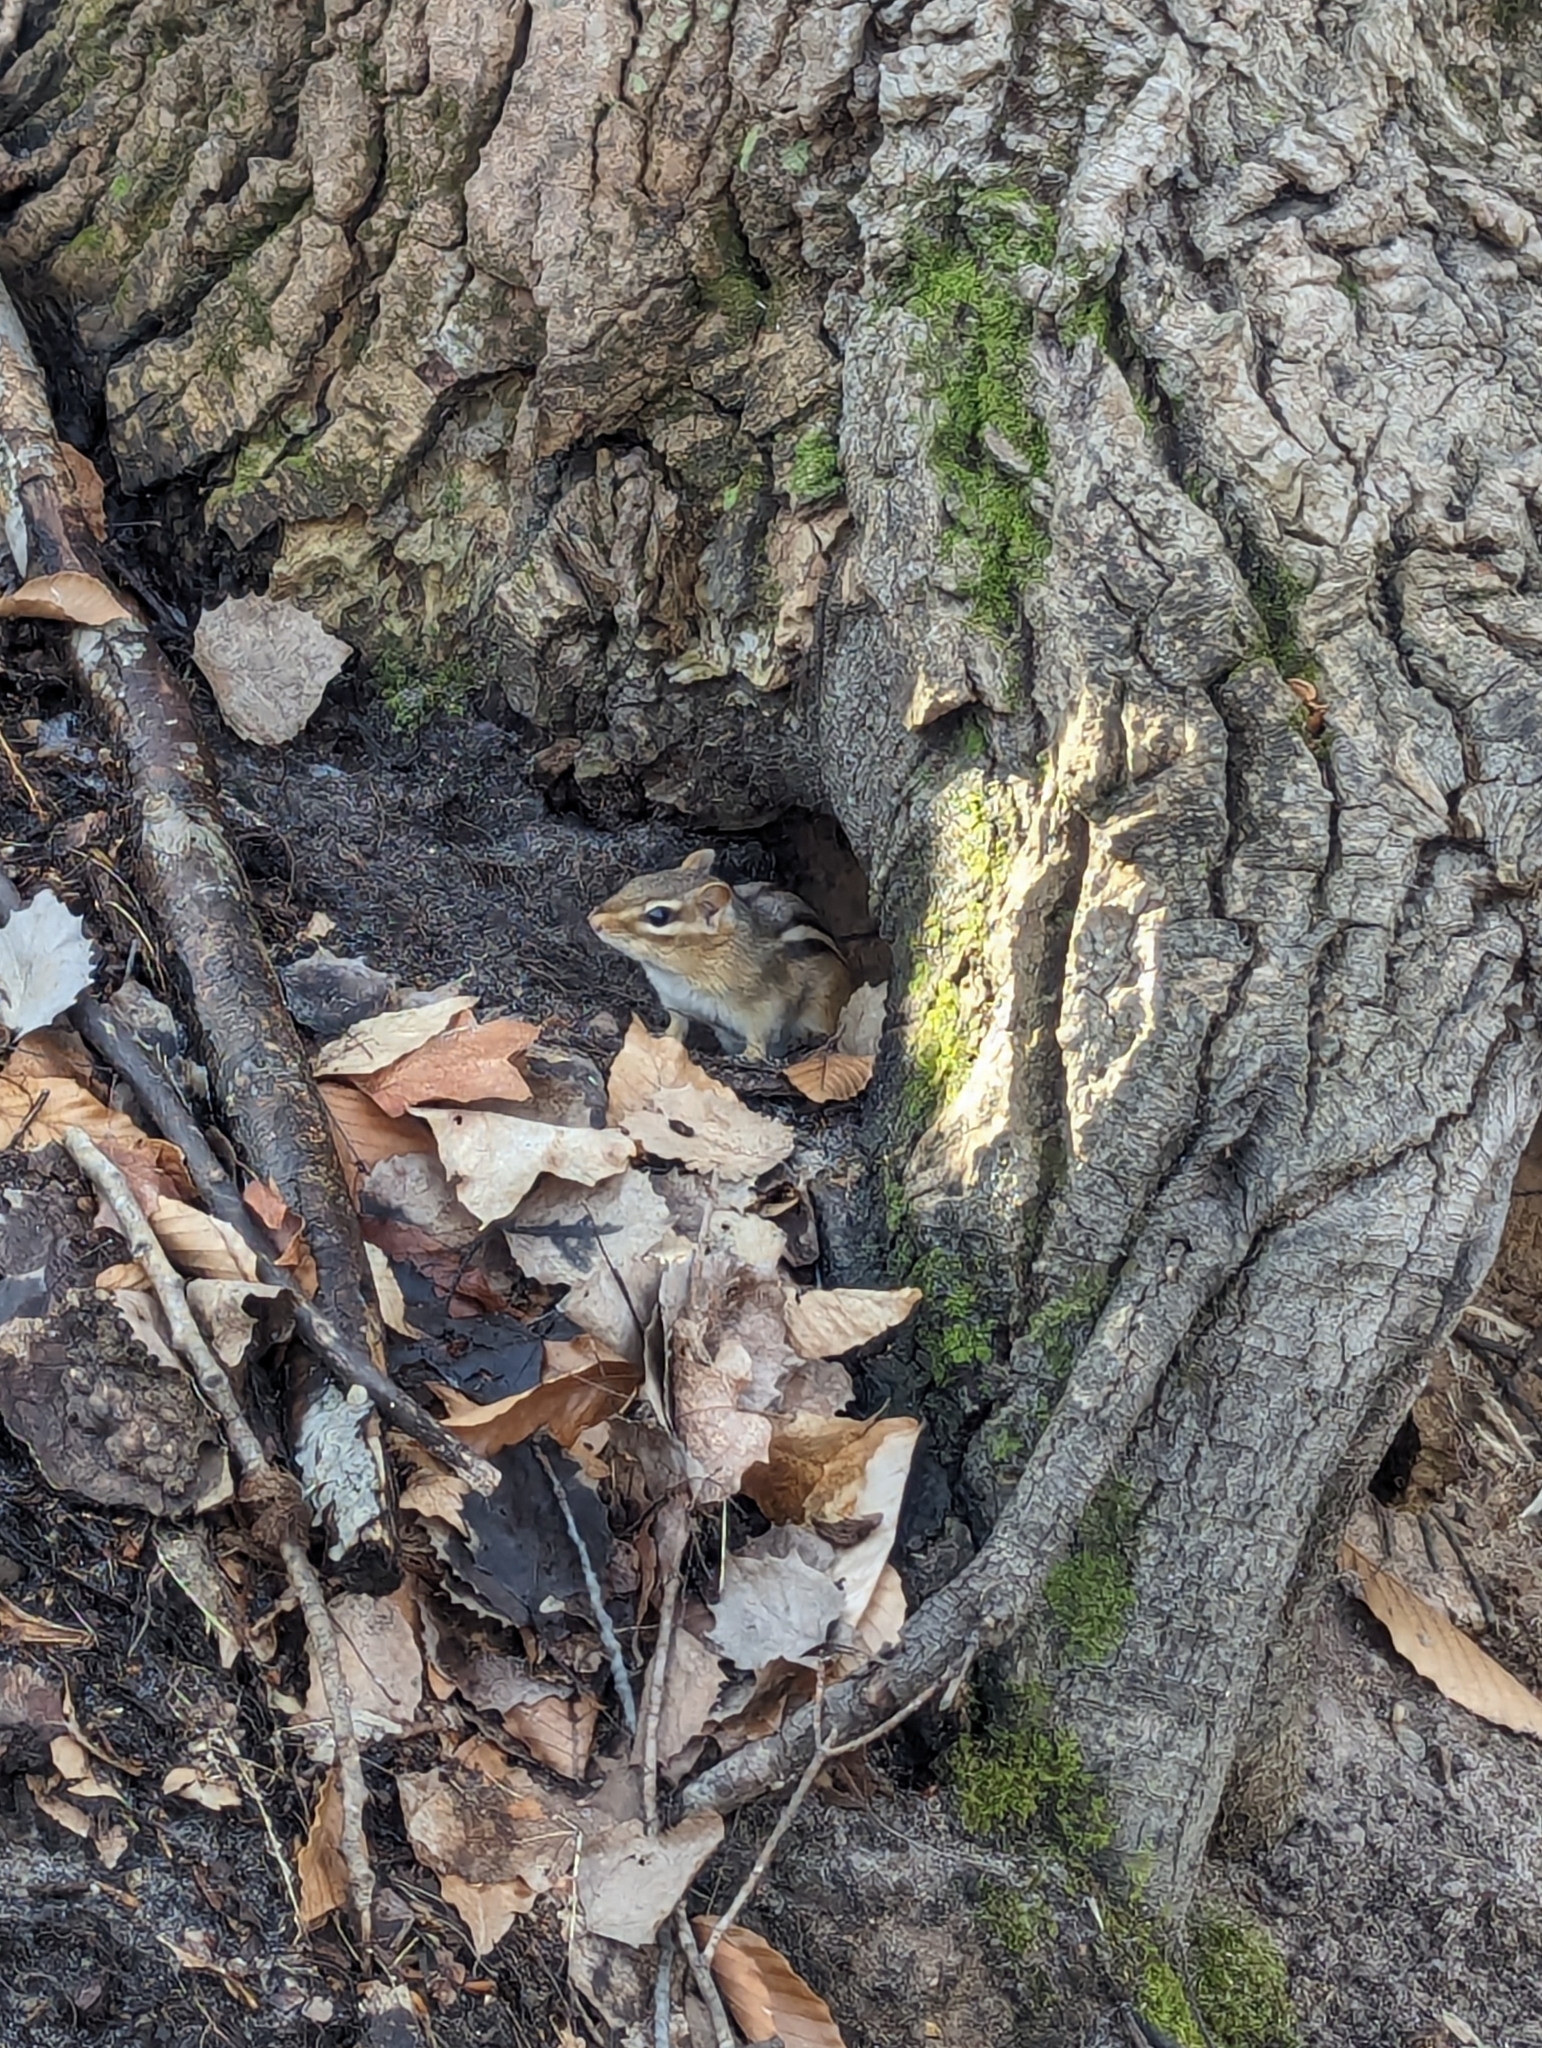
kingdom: Animalia
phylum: Chordata
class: Mammalia
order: Rodentia
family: Sciuridae
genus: Tamias
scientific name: Tamias striatus
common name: Eastern chipmunk
